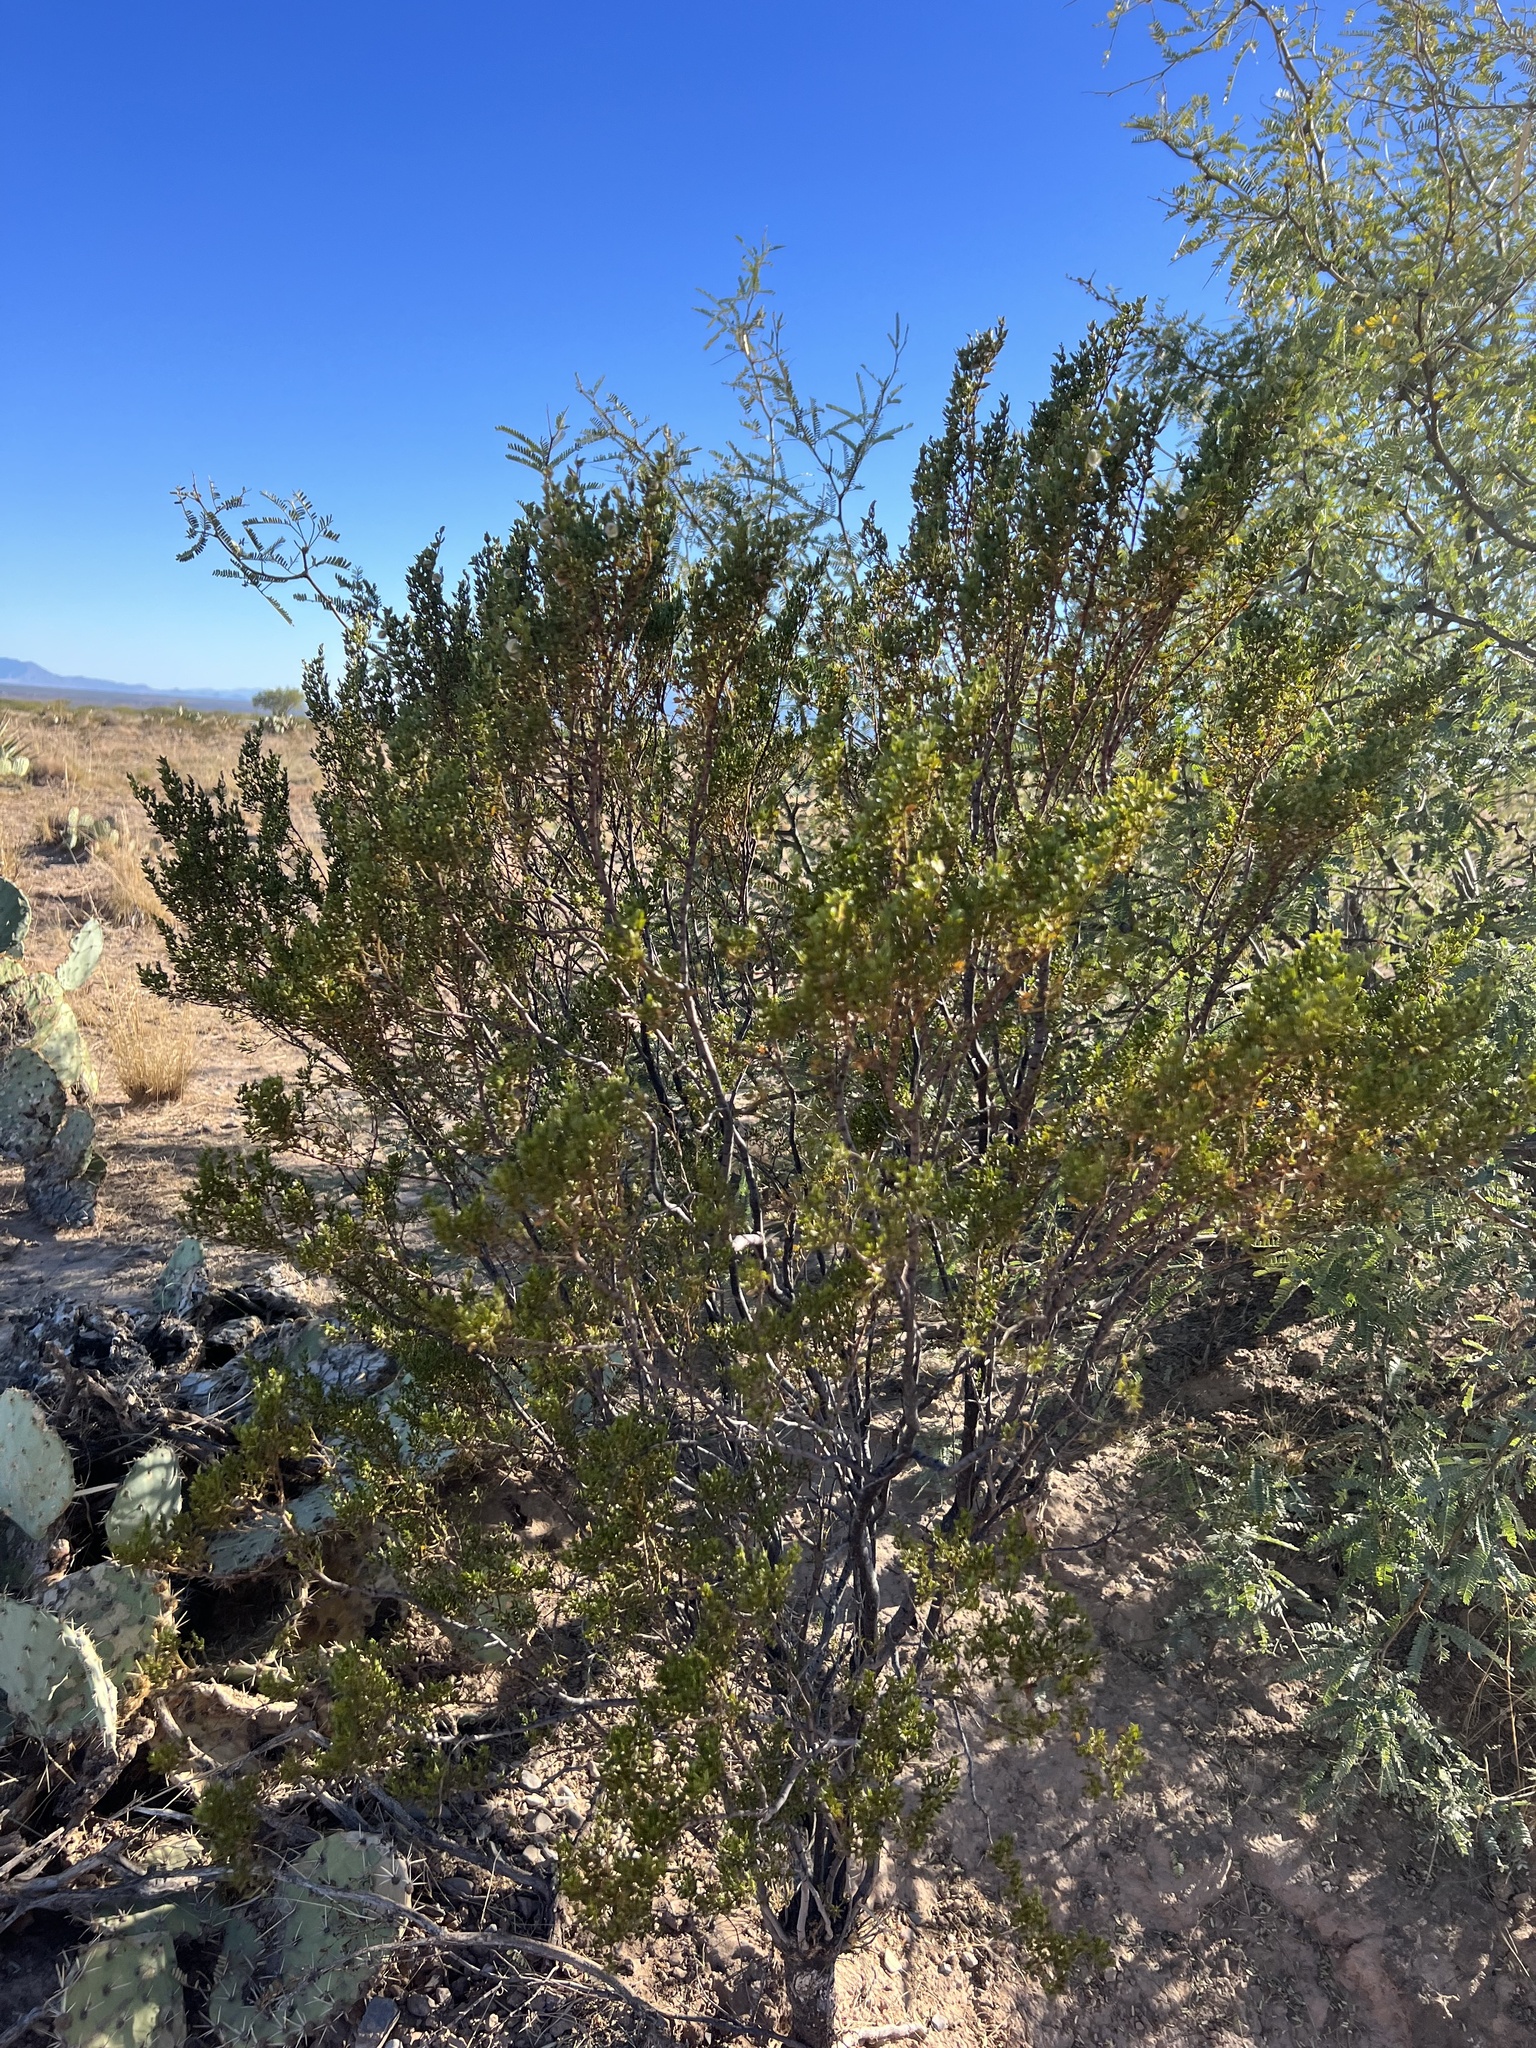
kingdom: Plantae
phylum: Tracheophyta
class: Magnoliopsida
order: Zygophyllales
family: Zygophyllaceae
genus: Larrea
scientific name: Larrea tridentata
